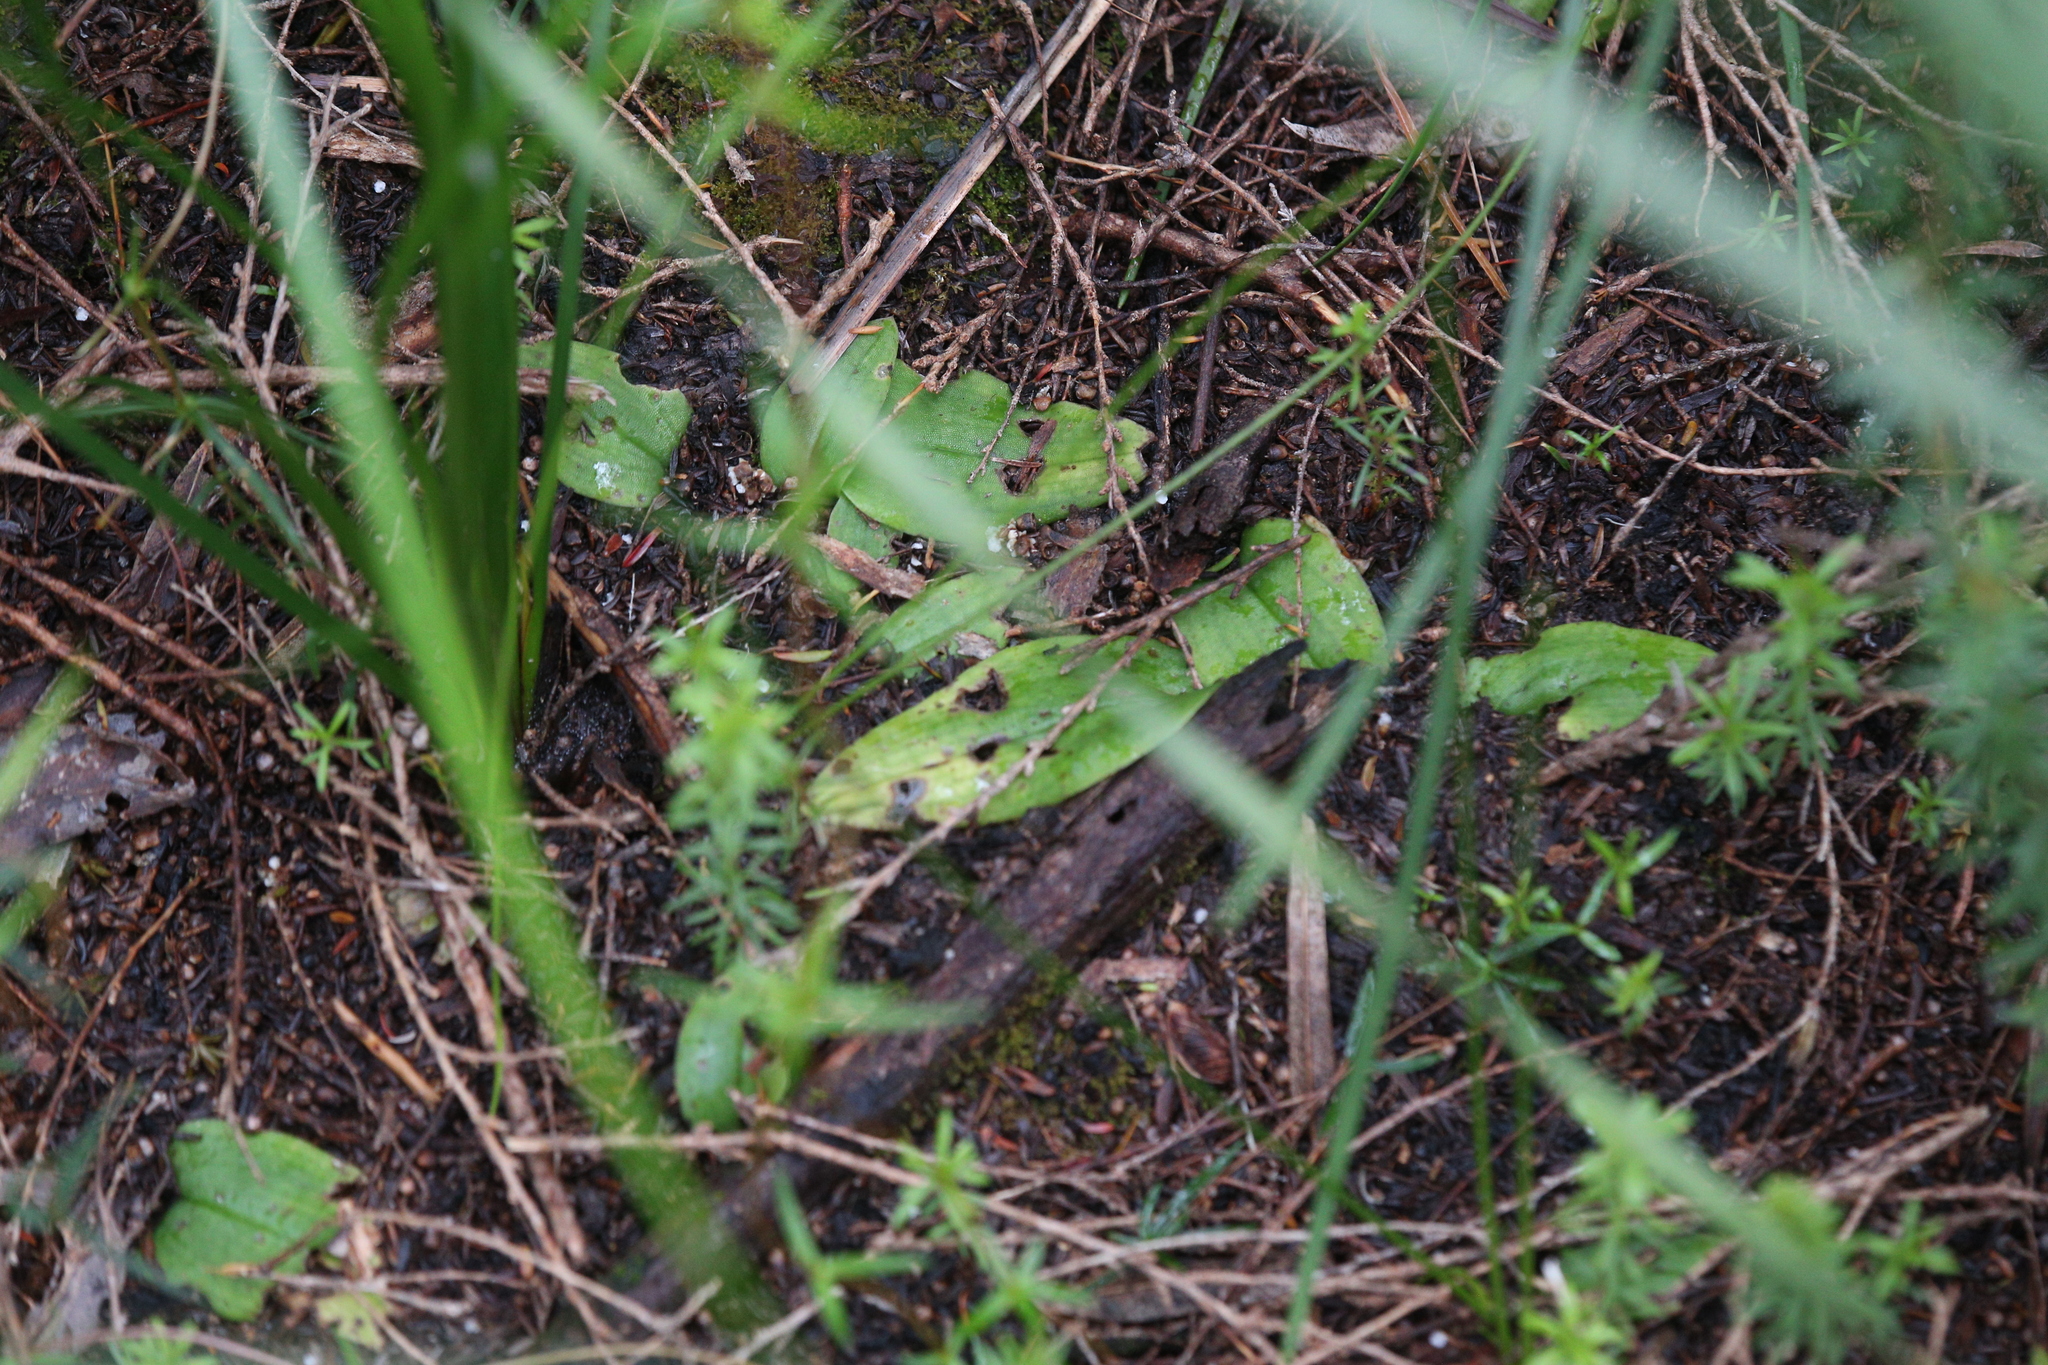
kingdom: Plantae
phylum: Tracheophyta
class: Liliopsida
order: Asparagales
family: Orchidaceae
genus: Pyrorchis
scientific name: Pyrorchis forrestii
